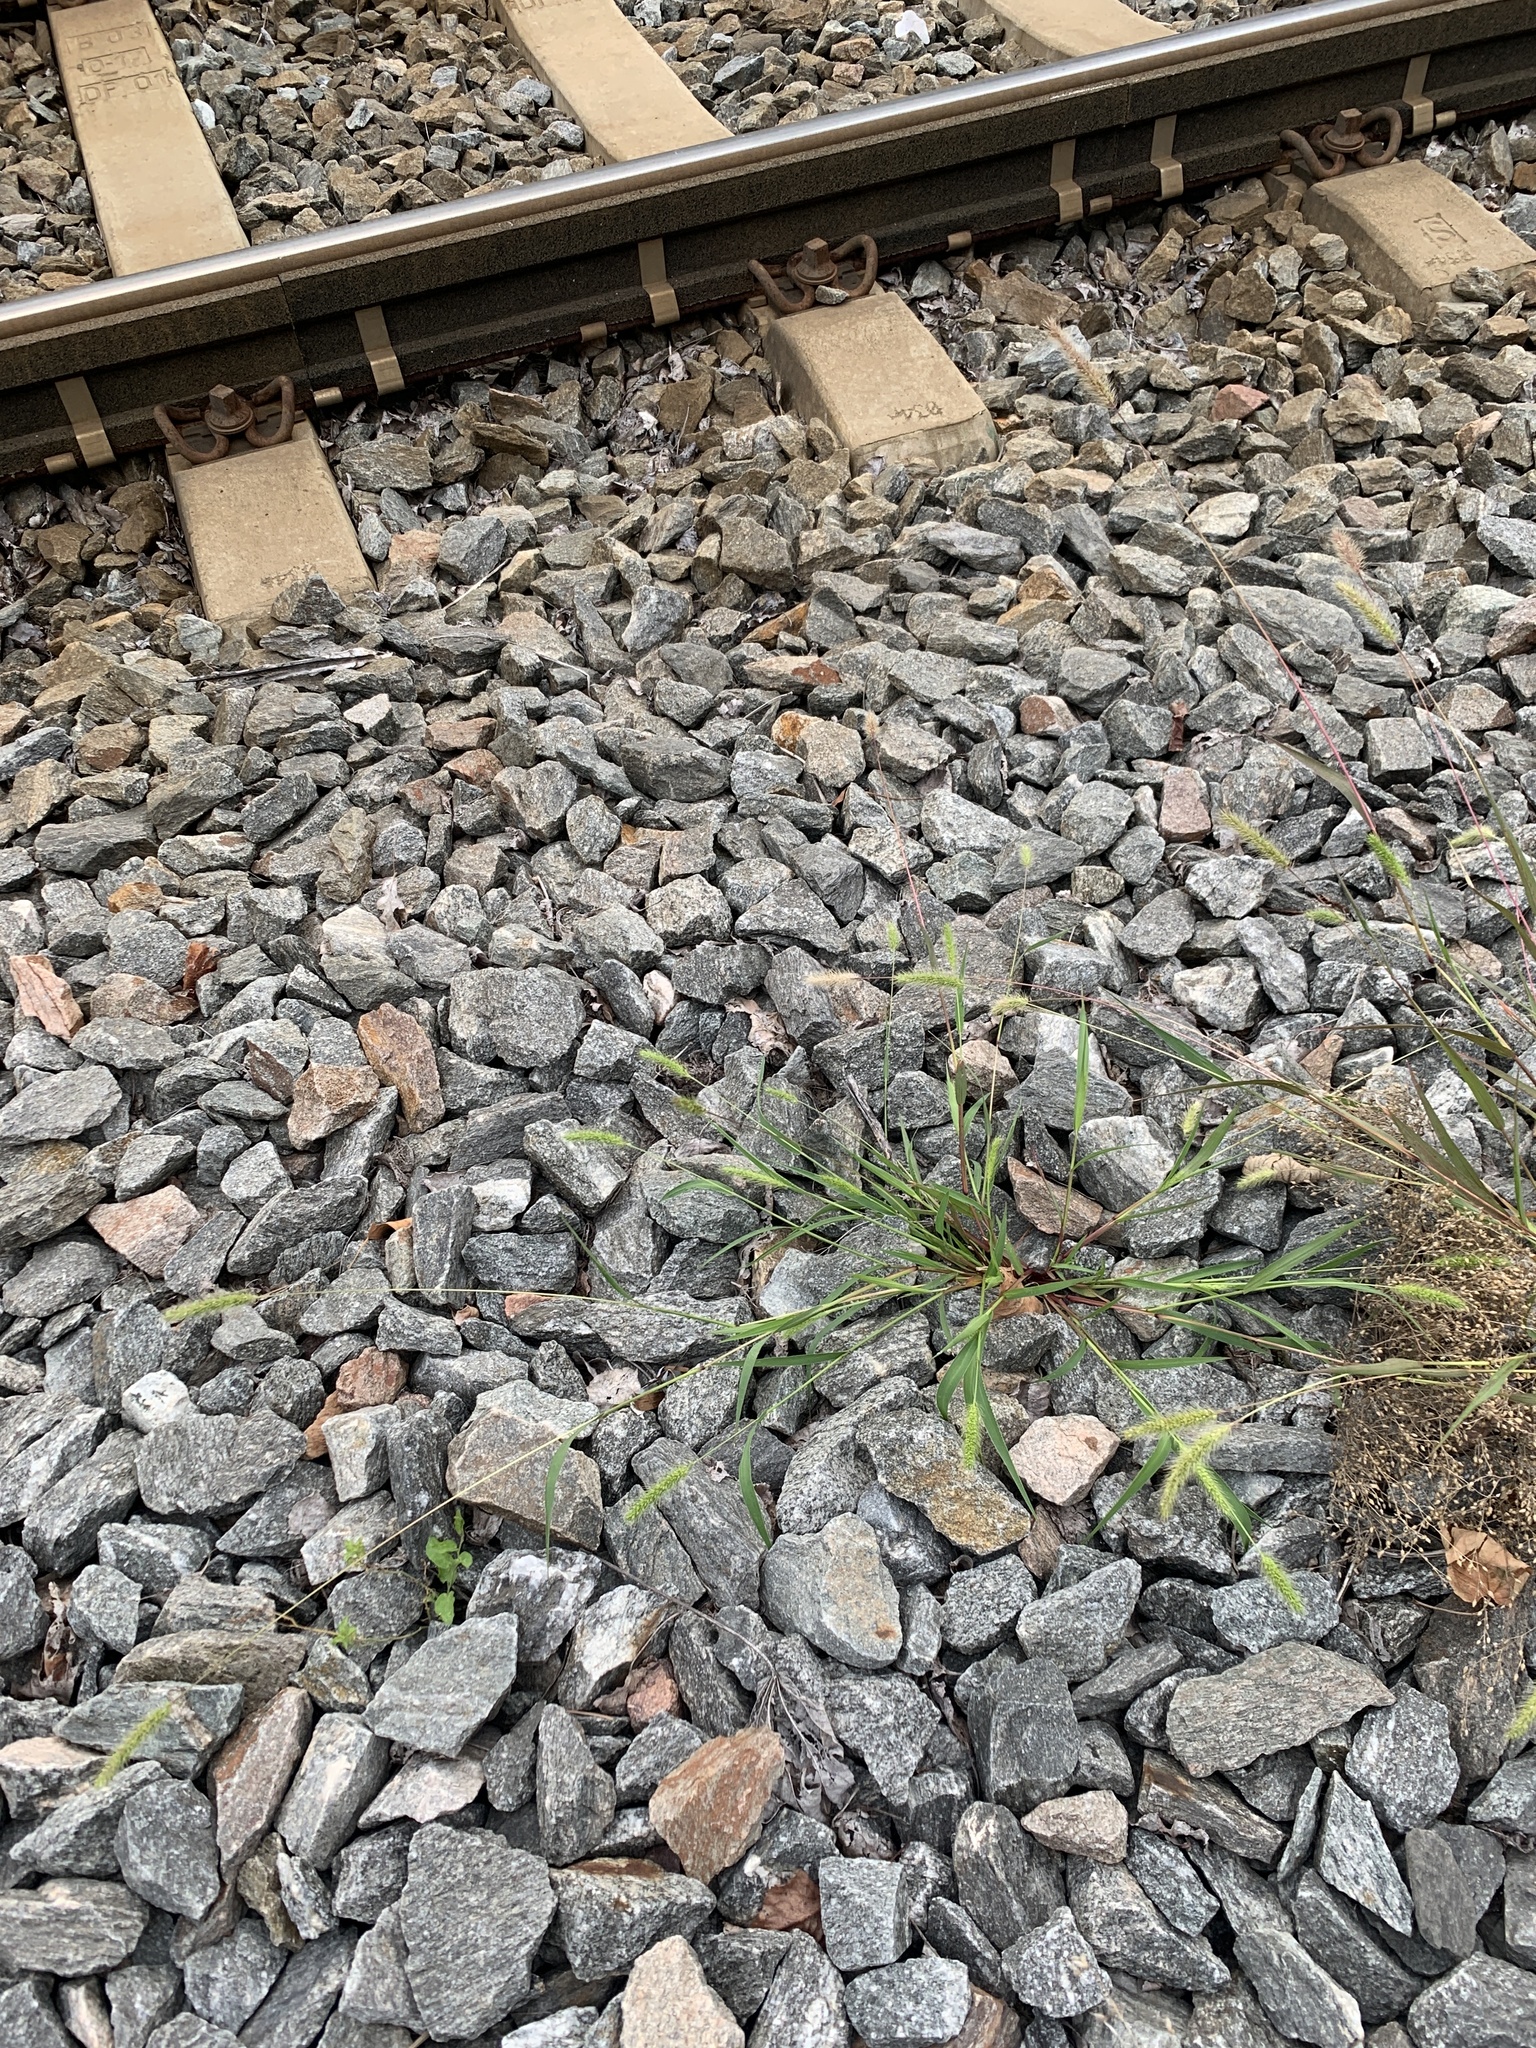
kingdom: Plantae
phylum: Tracheophyta
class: Liliopsida
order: Poales
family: Poaceae
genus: Setaria
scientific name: Setaria viridis
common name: Green bristlegrass
